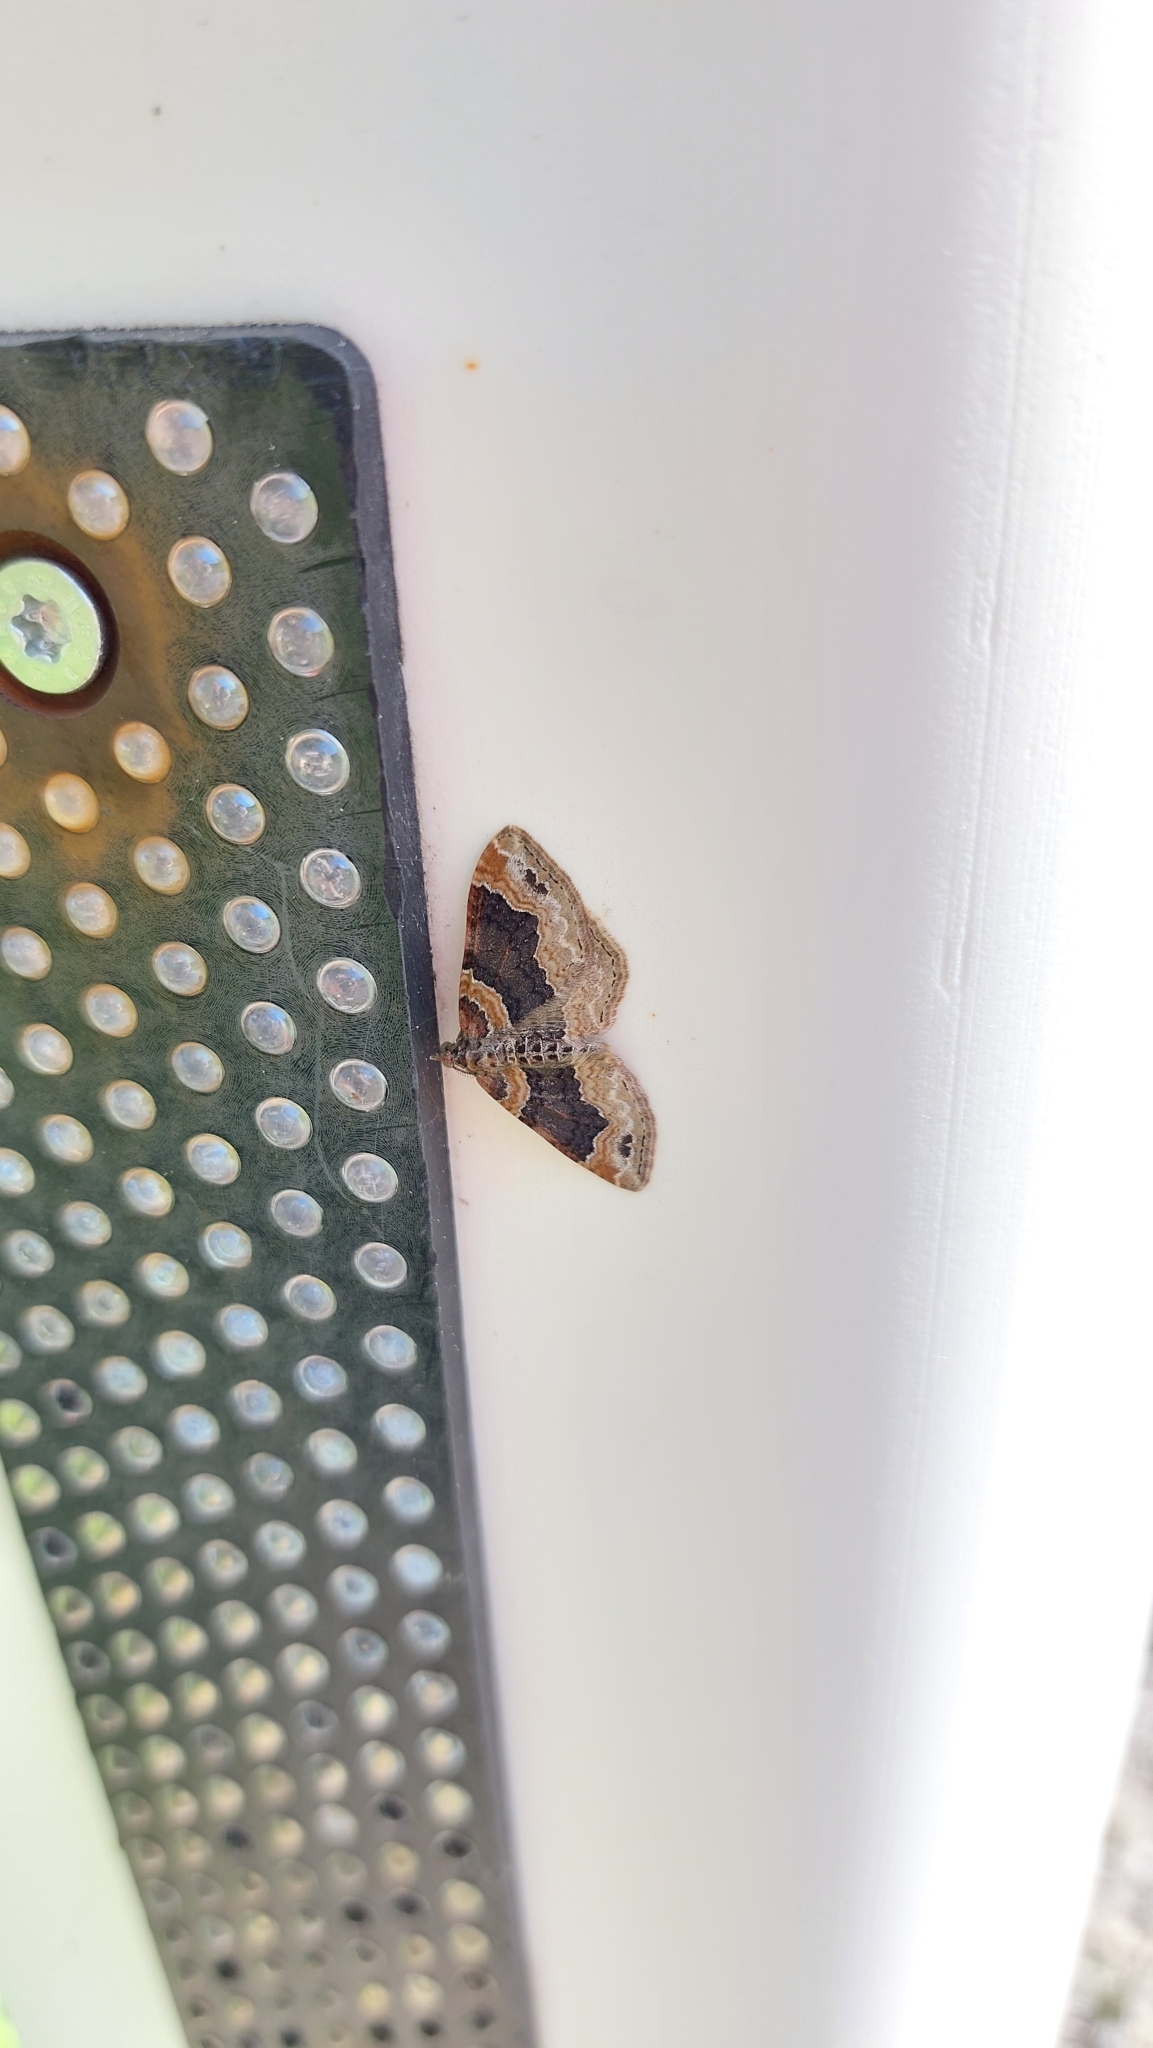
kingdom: Animalia
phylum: Arthropoda
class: Insecta
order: Lepidoptera
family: Geometridae
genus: Xanthorhoe
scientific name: Xanthorhoe ferrugata
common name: Dark-barred twin-spot carpet
